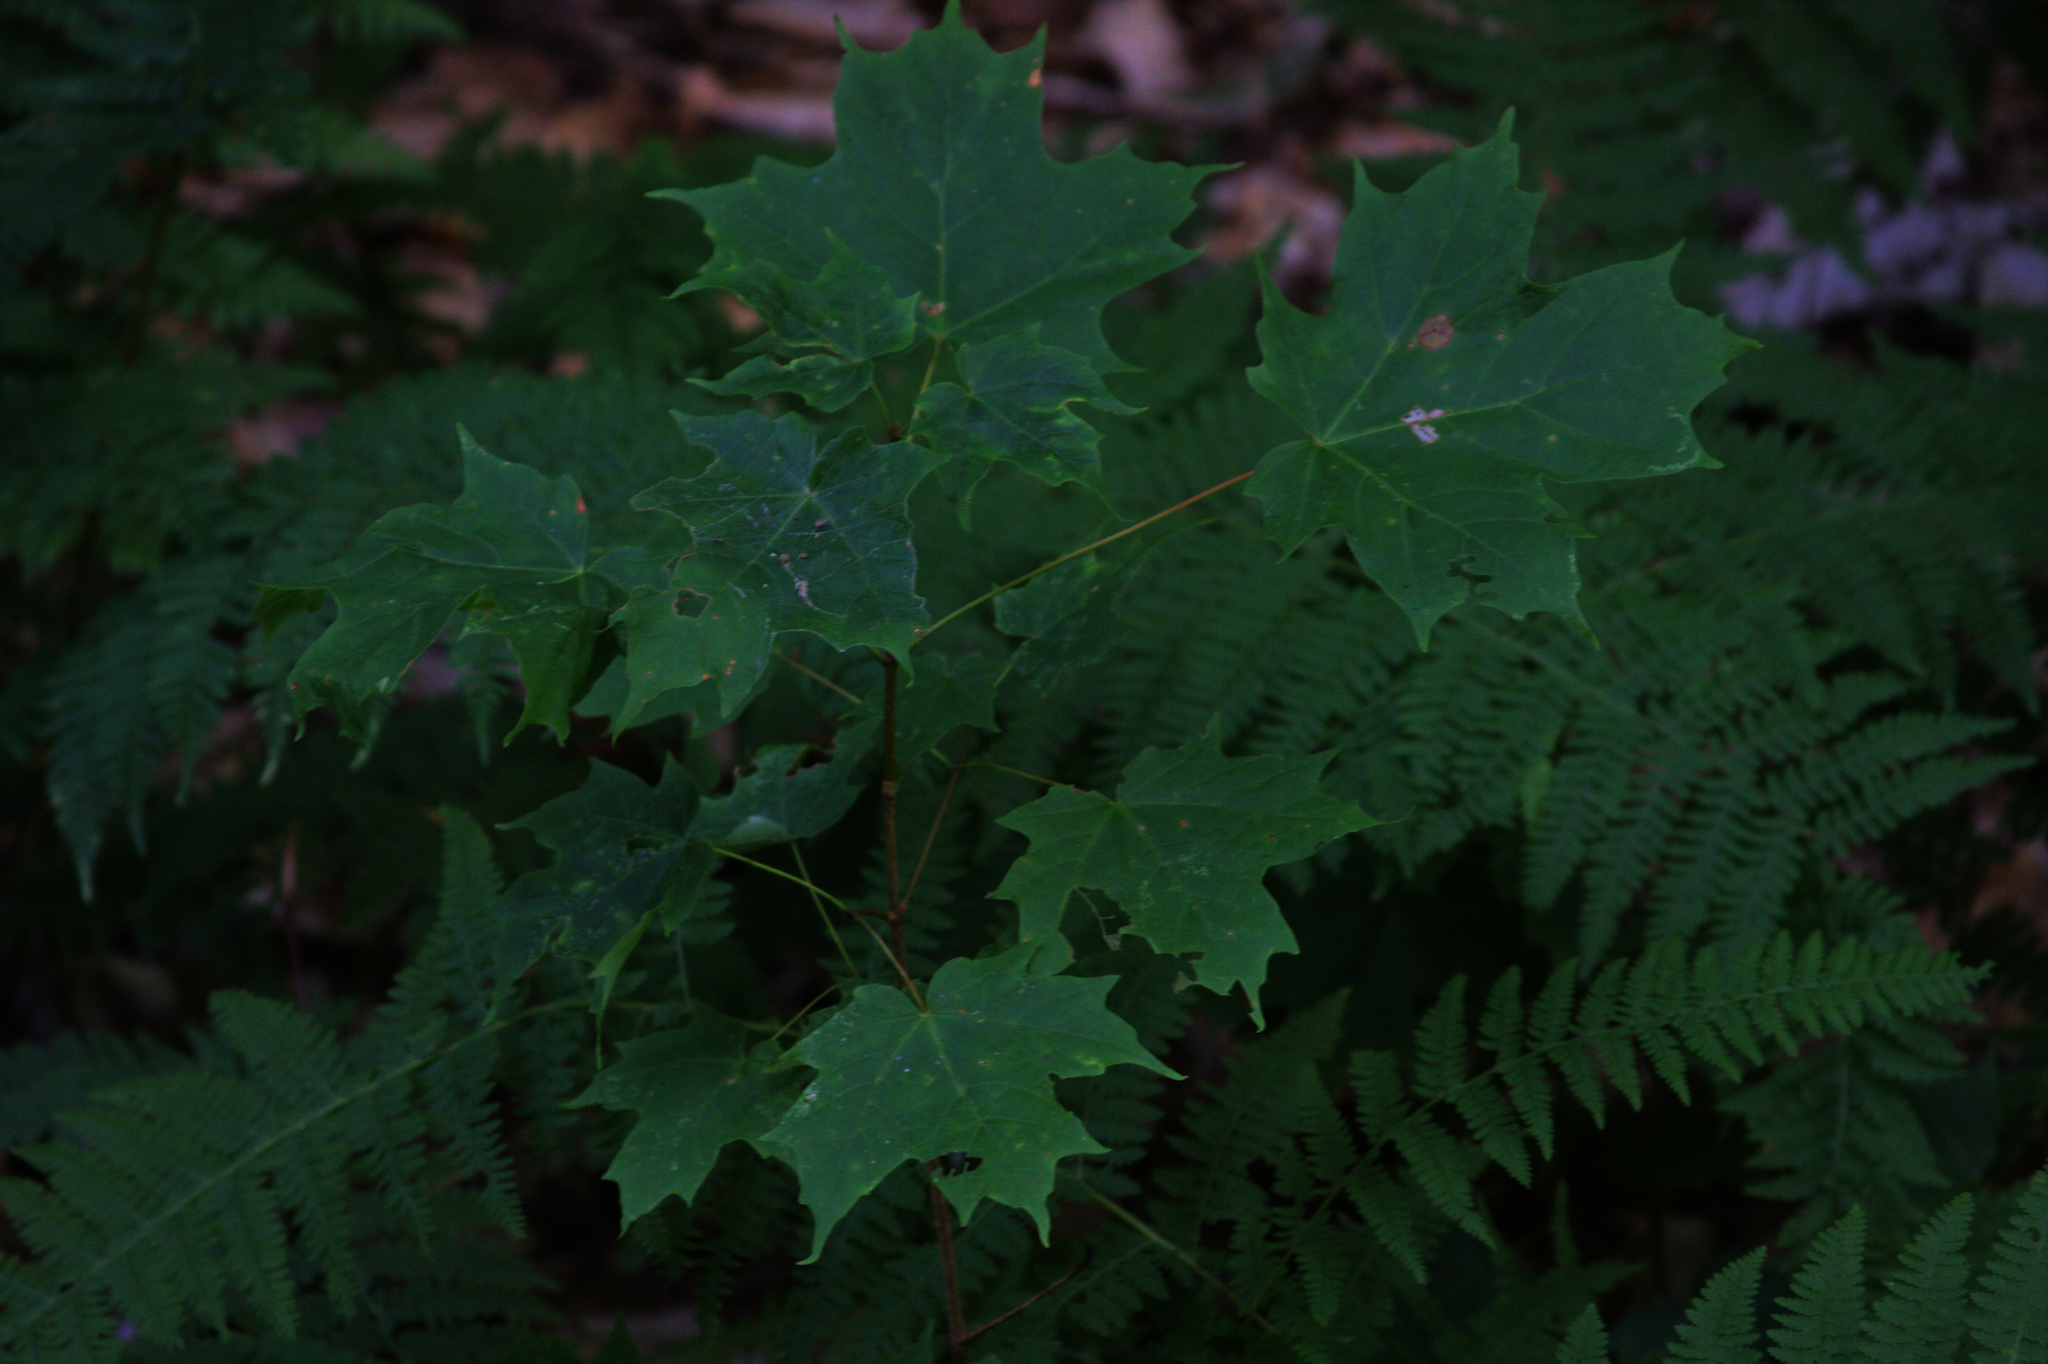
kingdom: Plantae
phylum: Tracheophyta
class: Magnoliopsida
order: Sapindales
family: Sapindaceae
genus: Acer
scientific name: Acer saccharum
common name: Sugar maple
